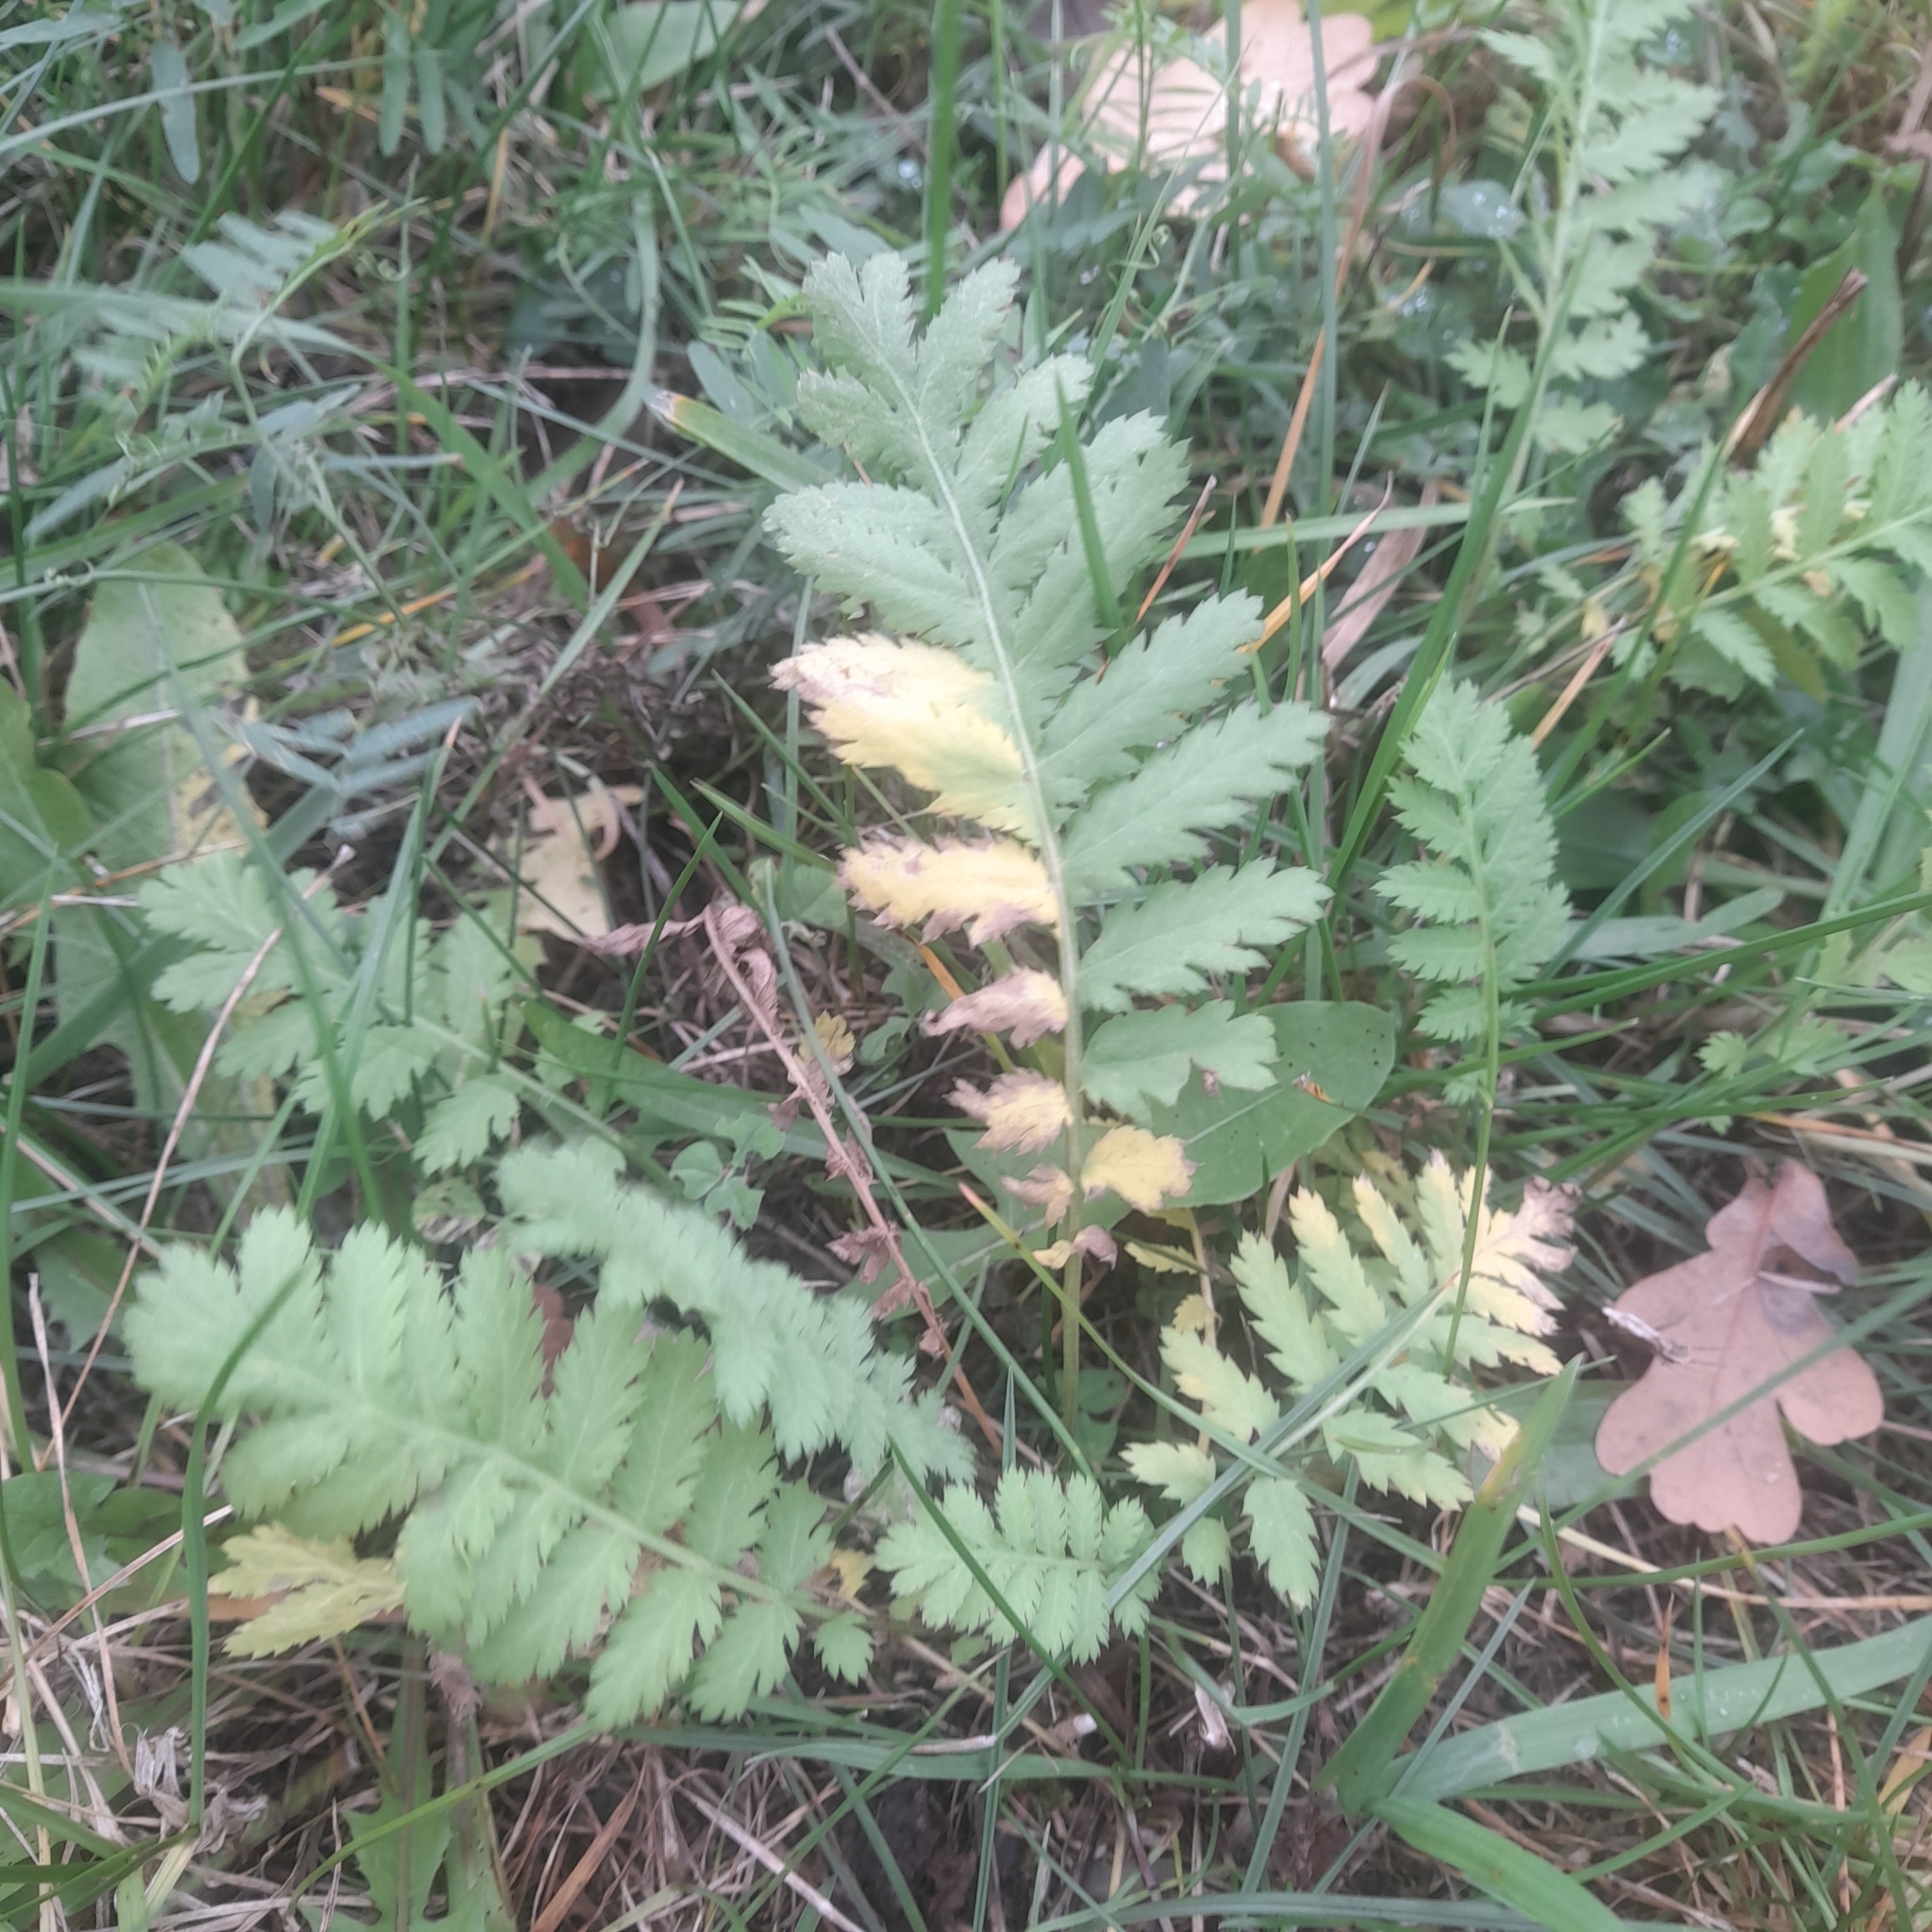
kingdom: Plantae
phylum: Tracheophyta
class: Magnoliopsida
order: Asterales
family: Asteraceae
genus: Tanacetum
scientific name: Tanacetum vulgare
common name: Common tansy
